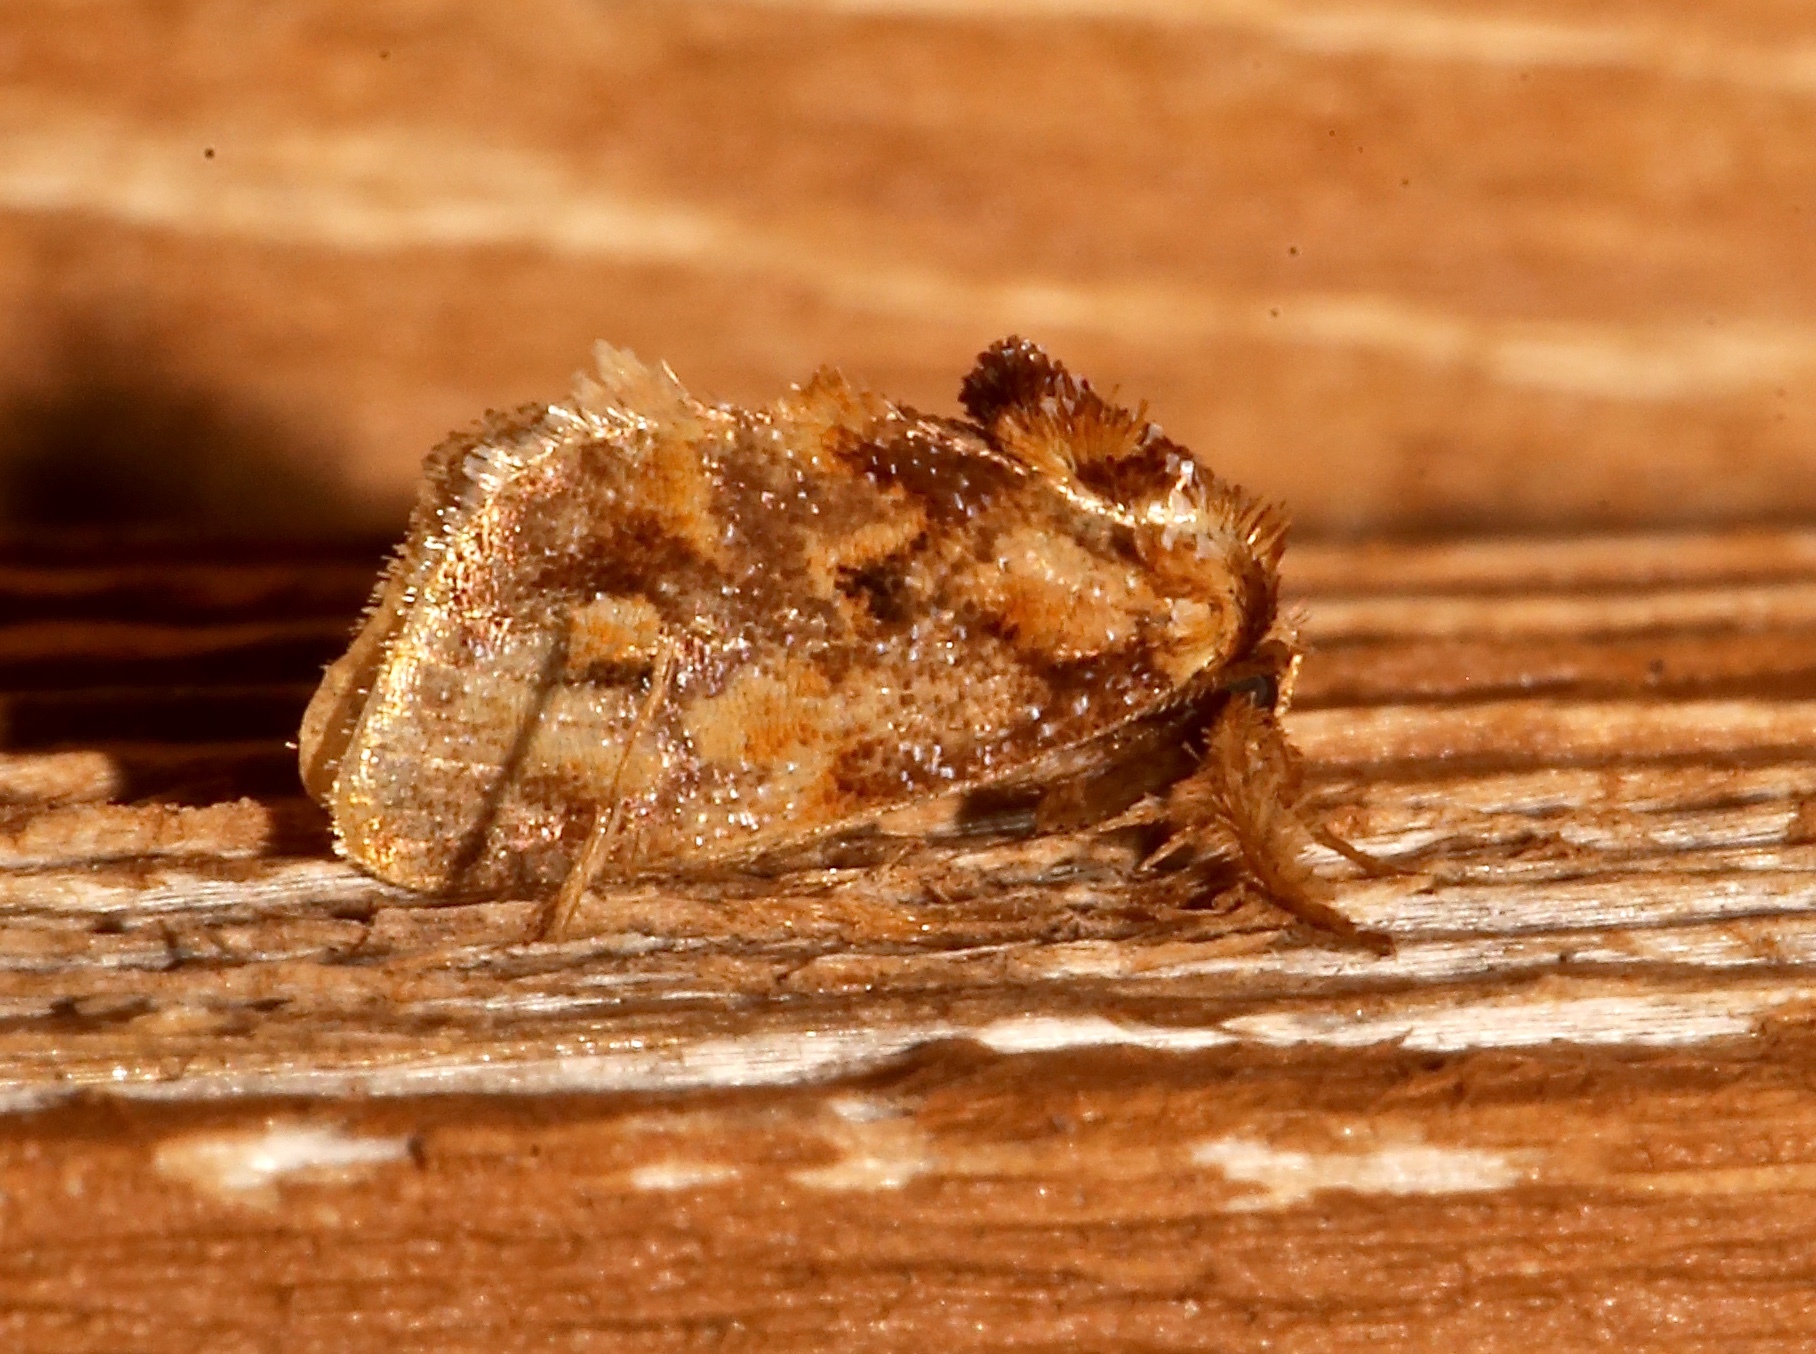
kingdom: Animalia
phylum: Arthropoda
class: Insecta
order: Lepidoptera
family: Limacodidae
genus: Isochaetes
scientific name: Isochaetes beutenmuelleri
